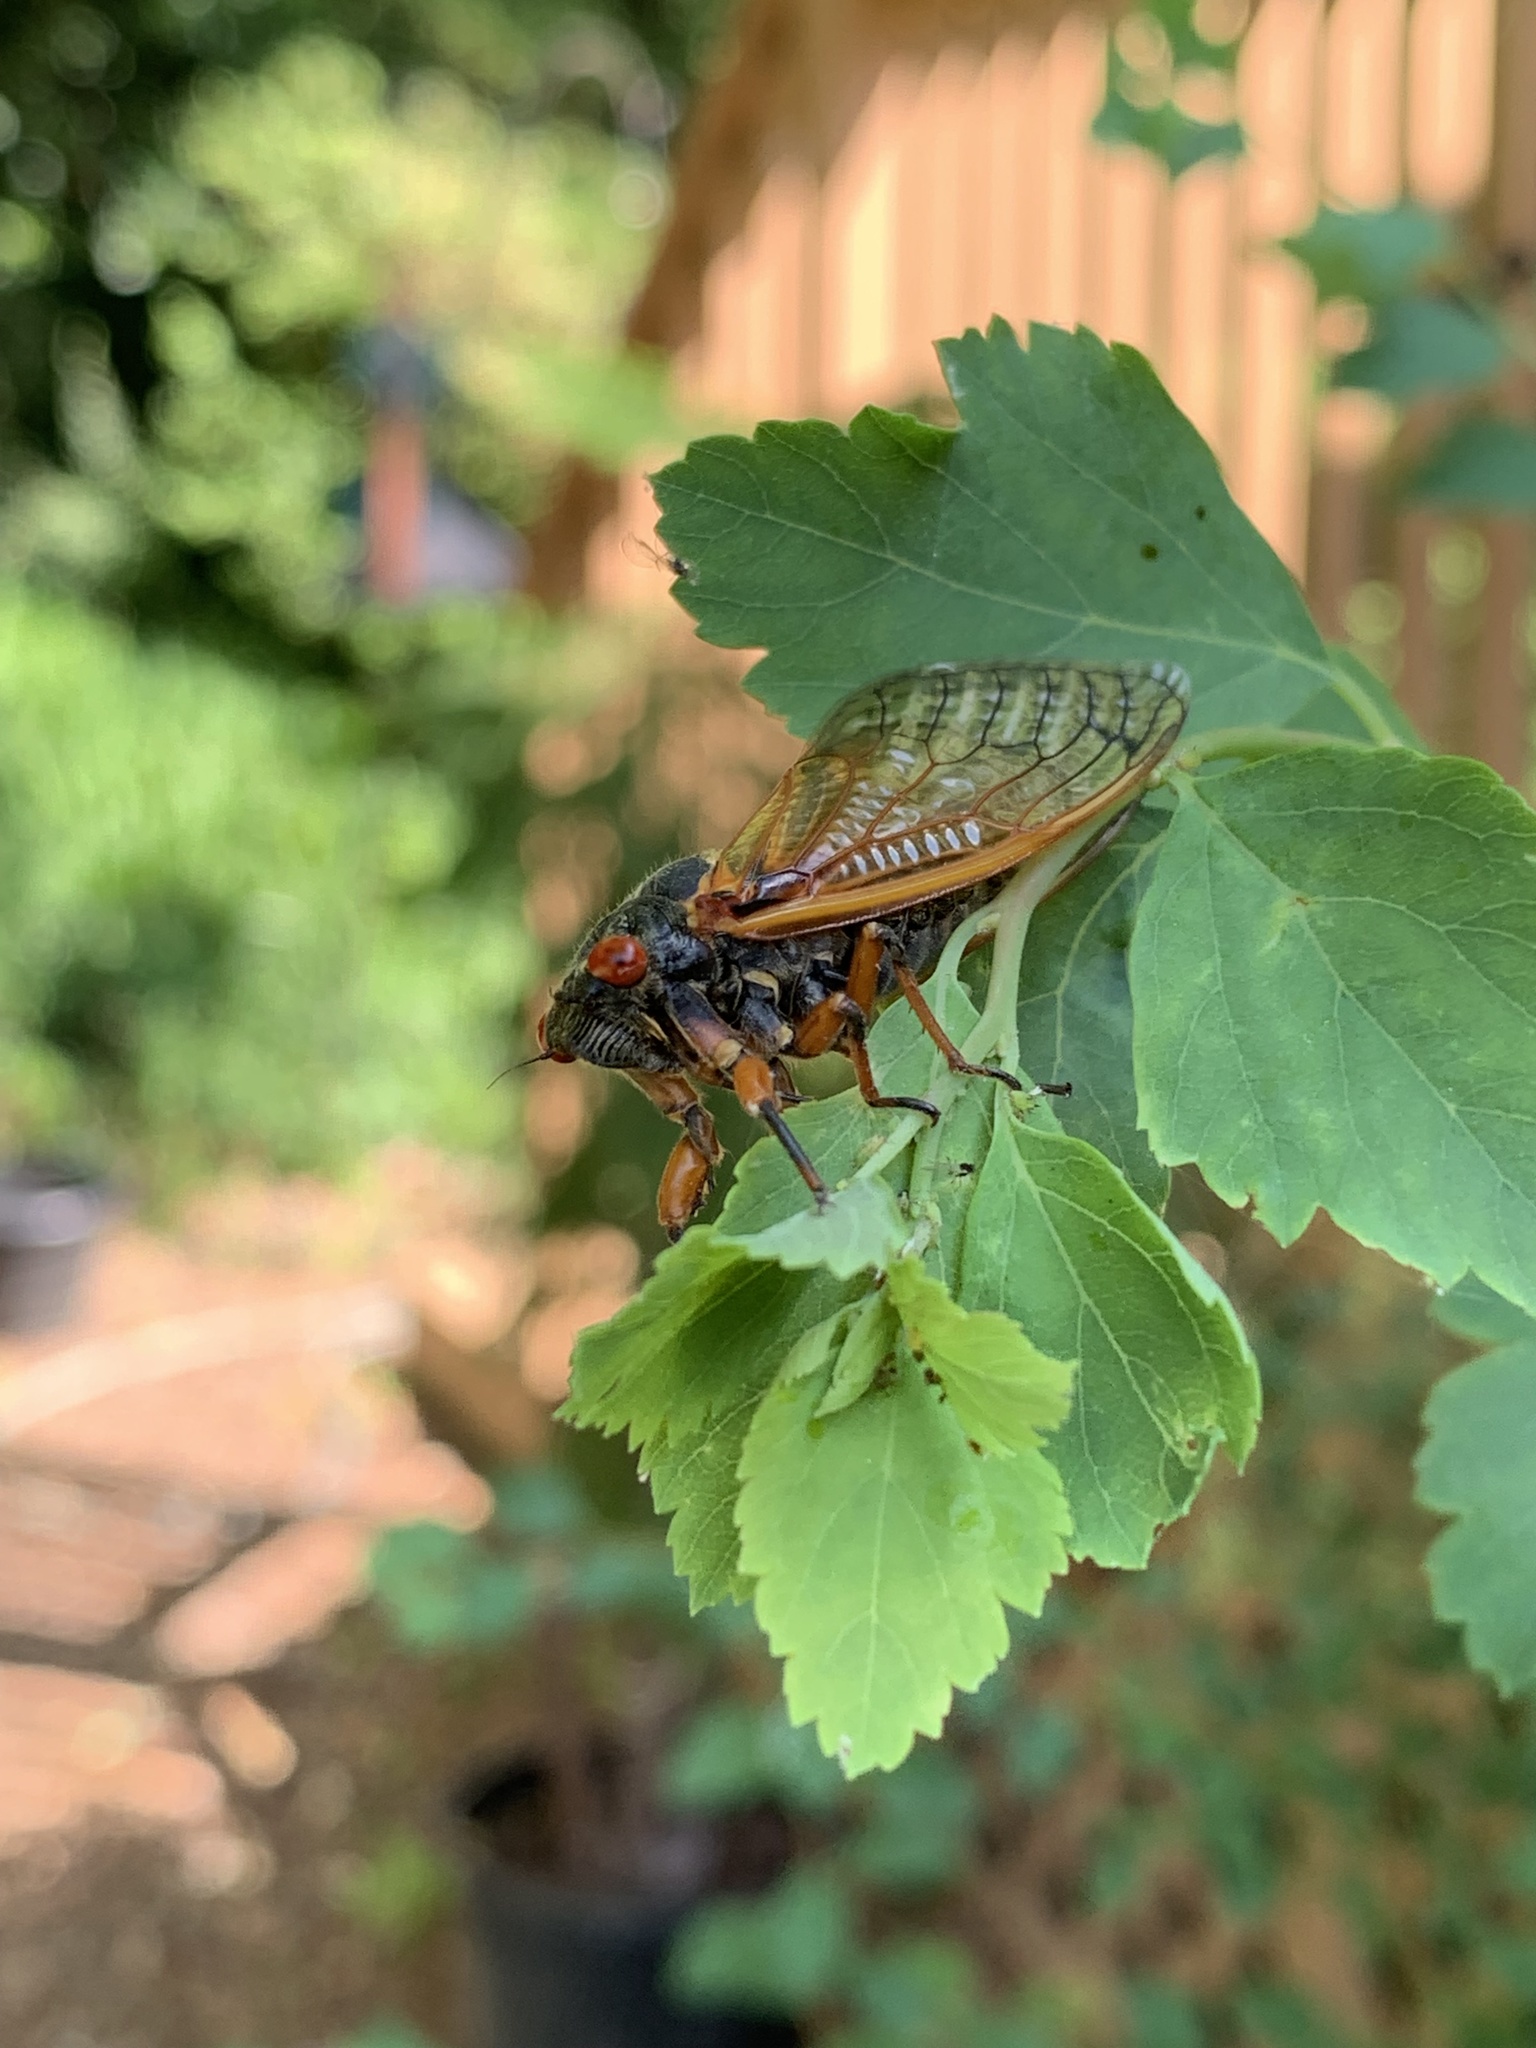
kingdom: Animalia
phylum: Arthropoda
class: Insecta
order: Hemiptera
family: Cicadidae
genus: Magicicada
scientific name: Magicicada cassini
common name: Cassin's 17-year cicada
